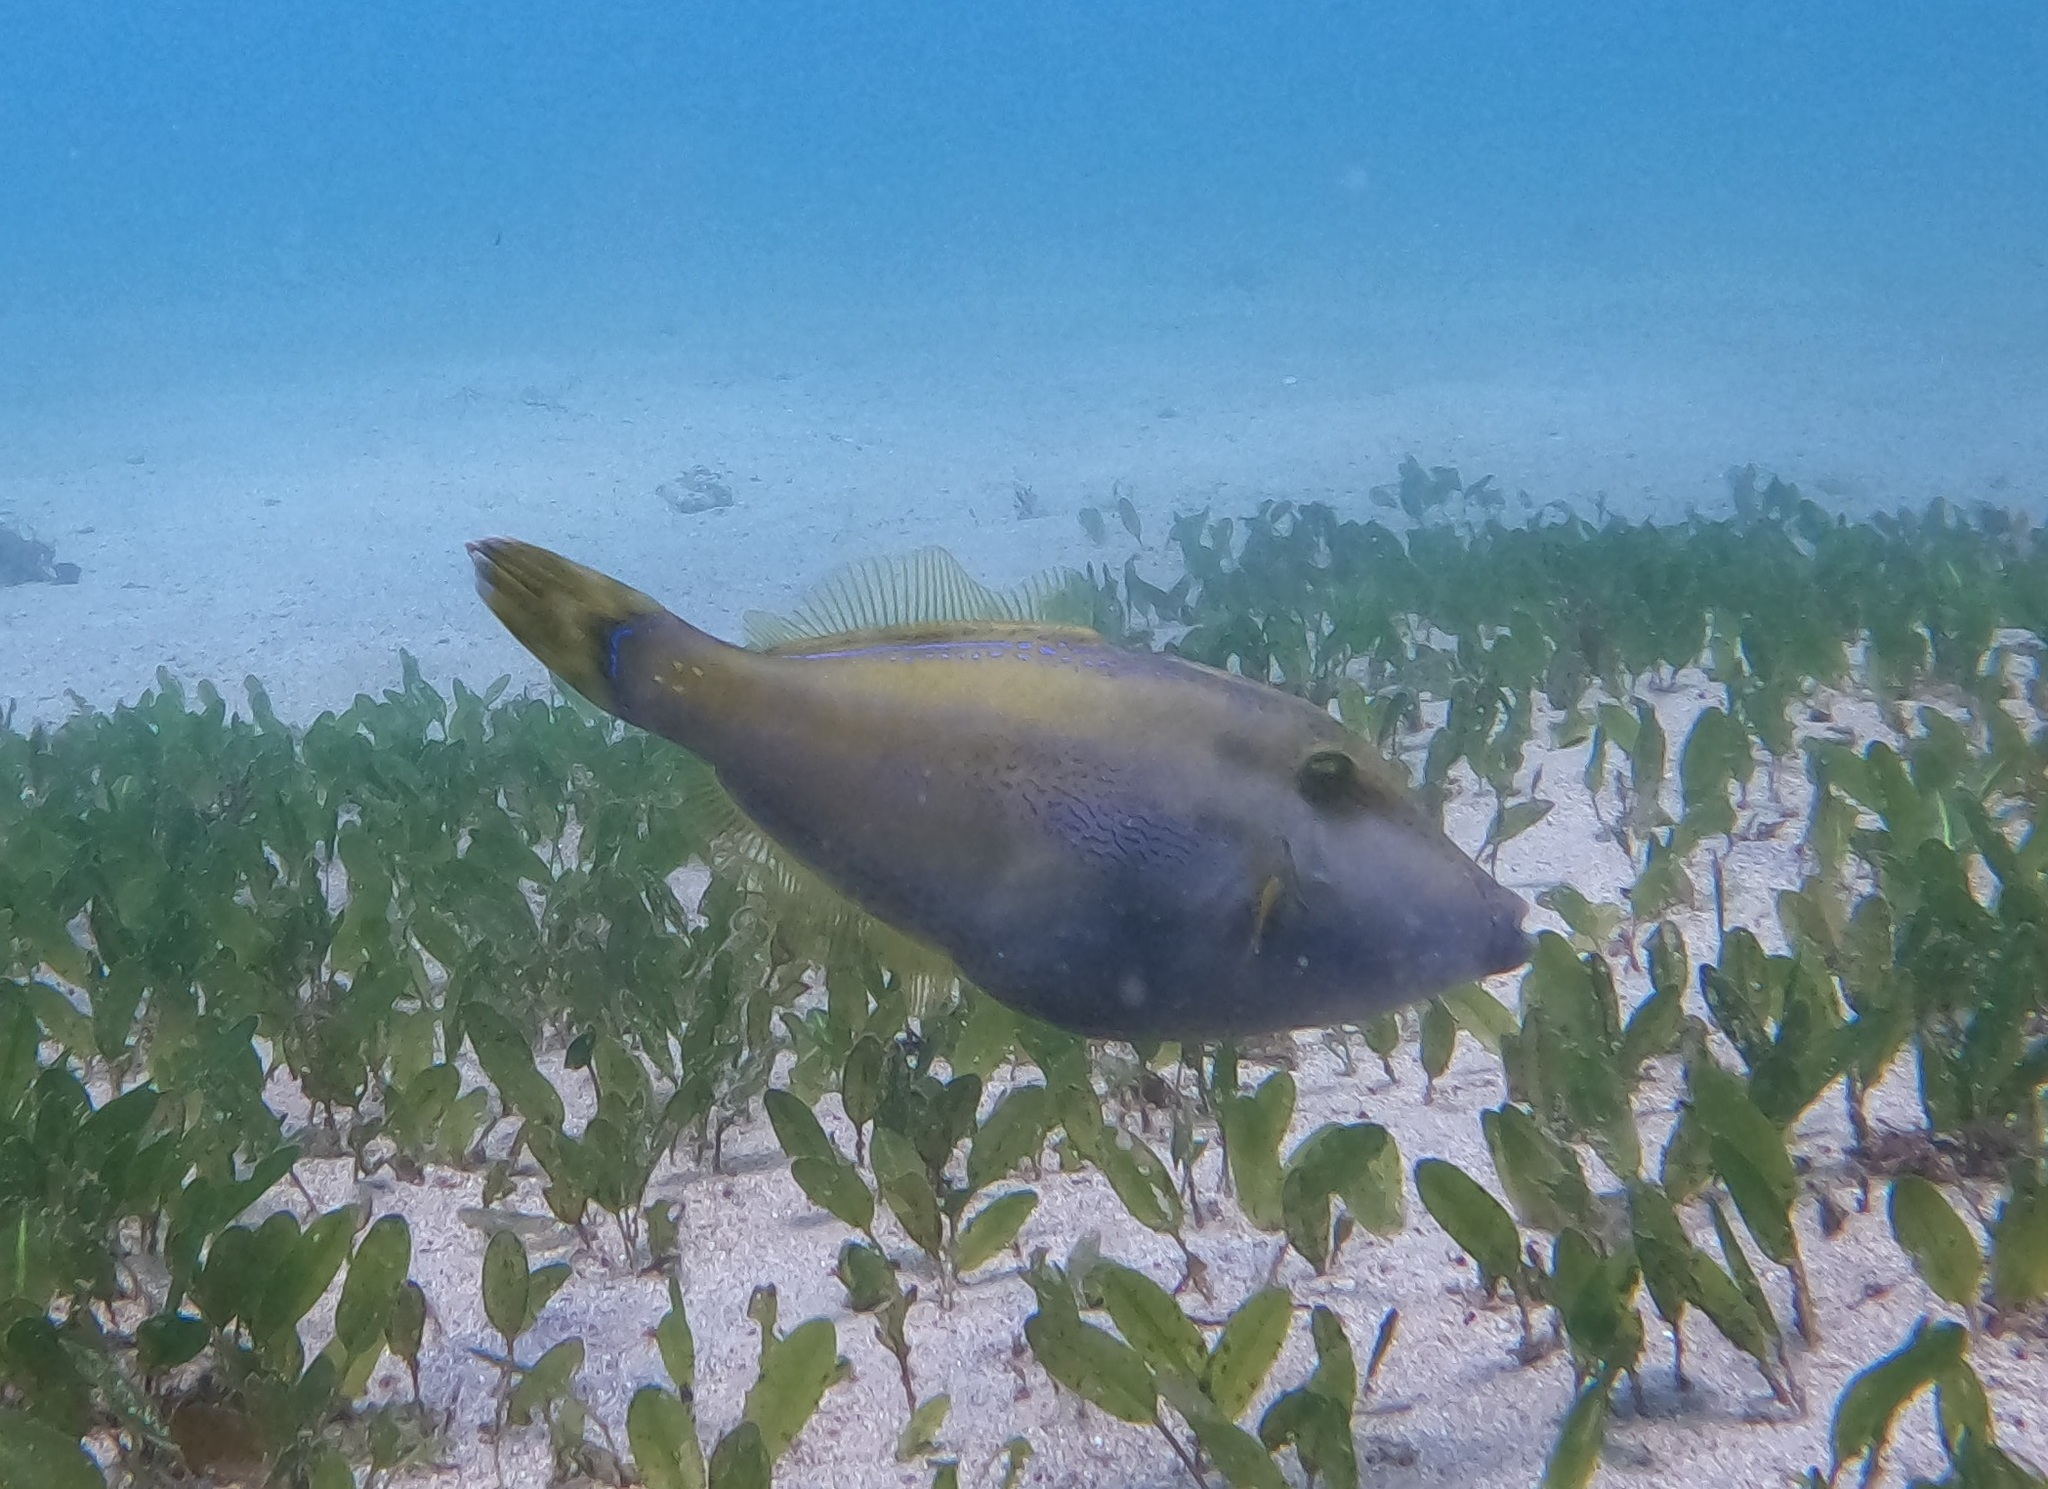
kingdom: Animalia
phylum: Chordata
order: Tetraodontiformes
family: Monacanthidae
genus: Meuschenia
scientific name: Meuschenia trachylepis
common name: Yellowfin leatherjacket
